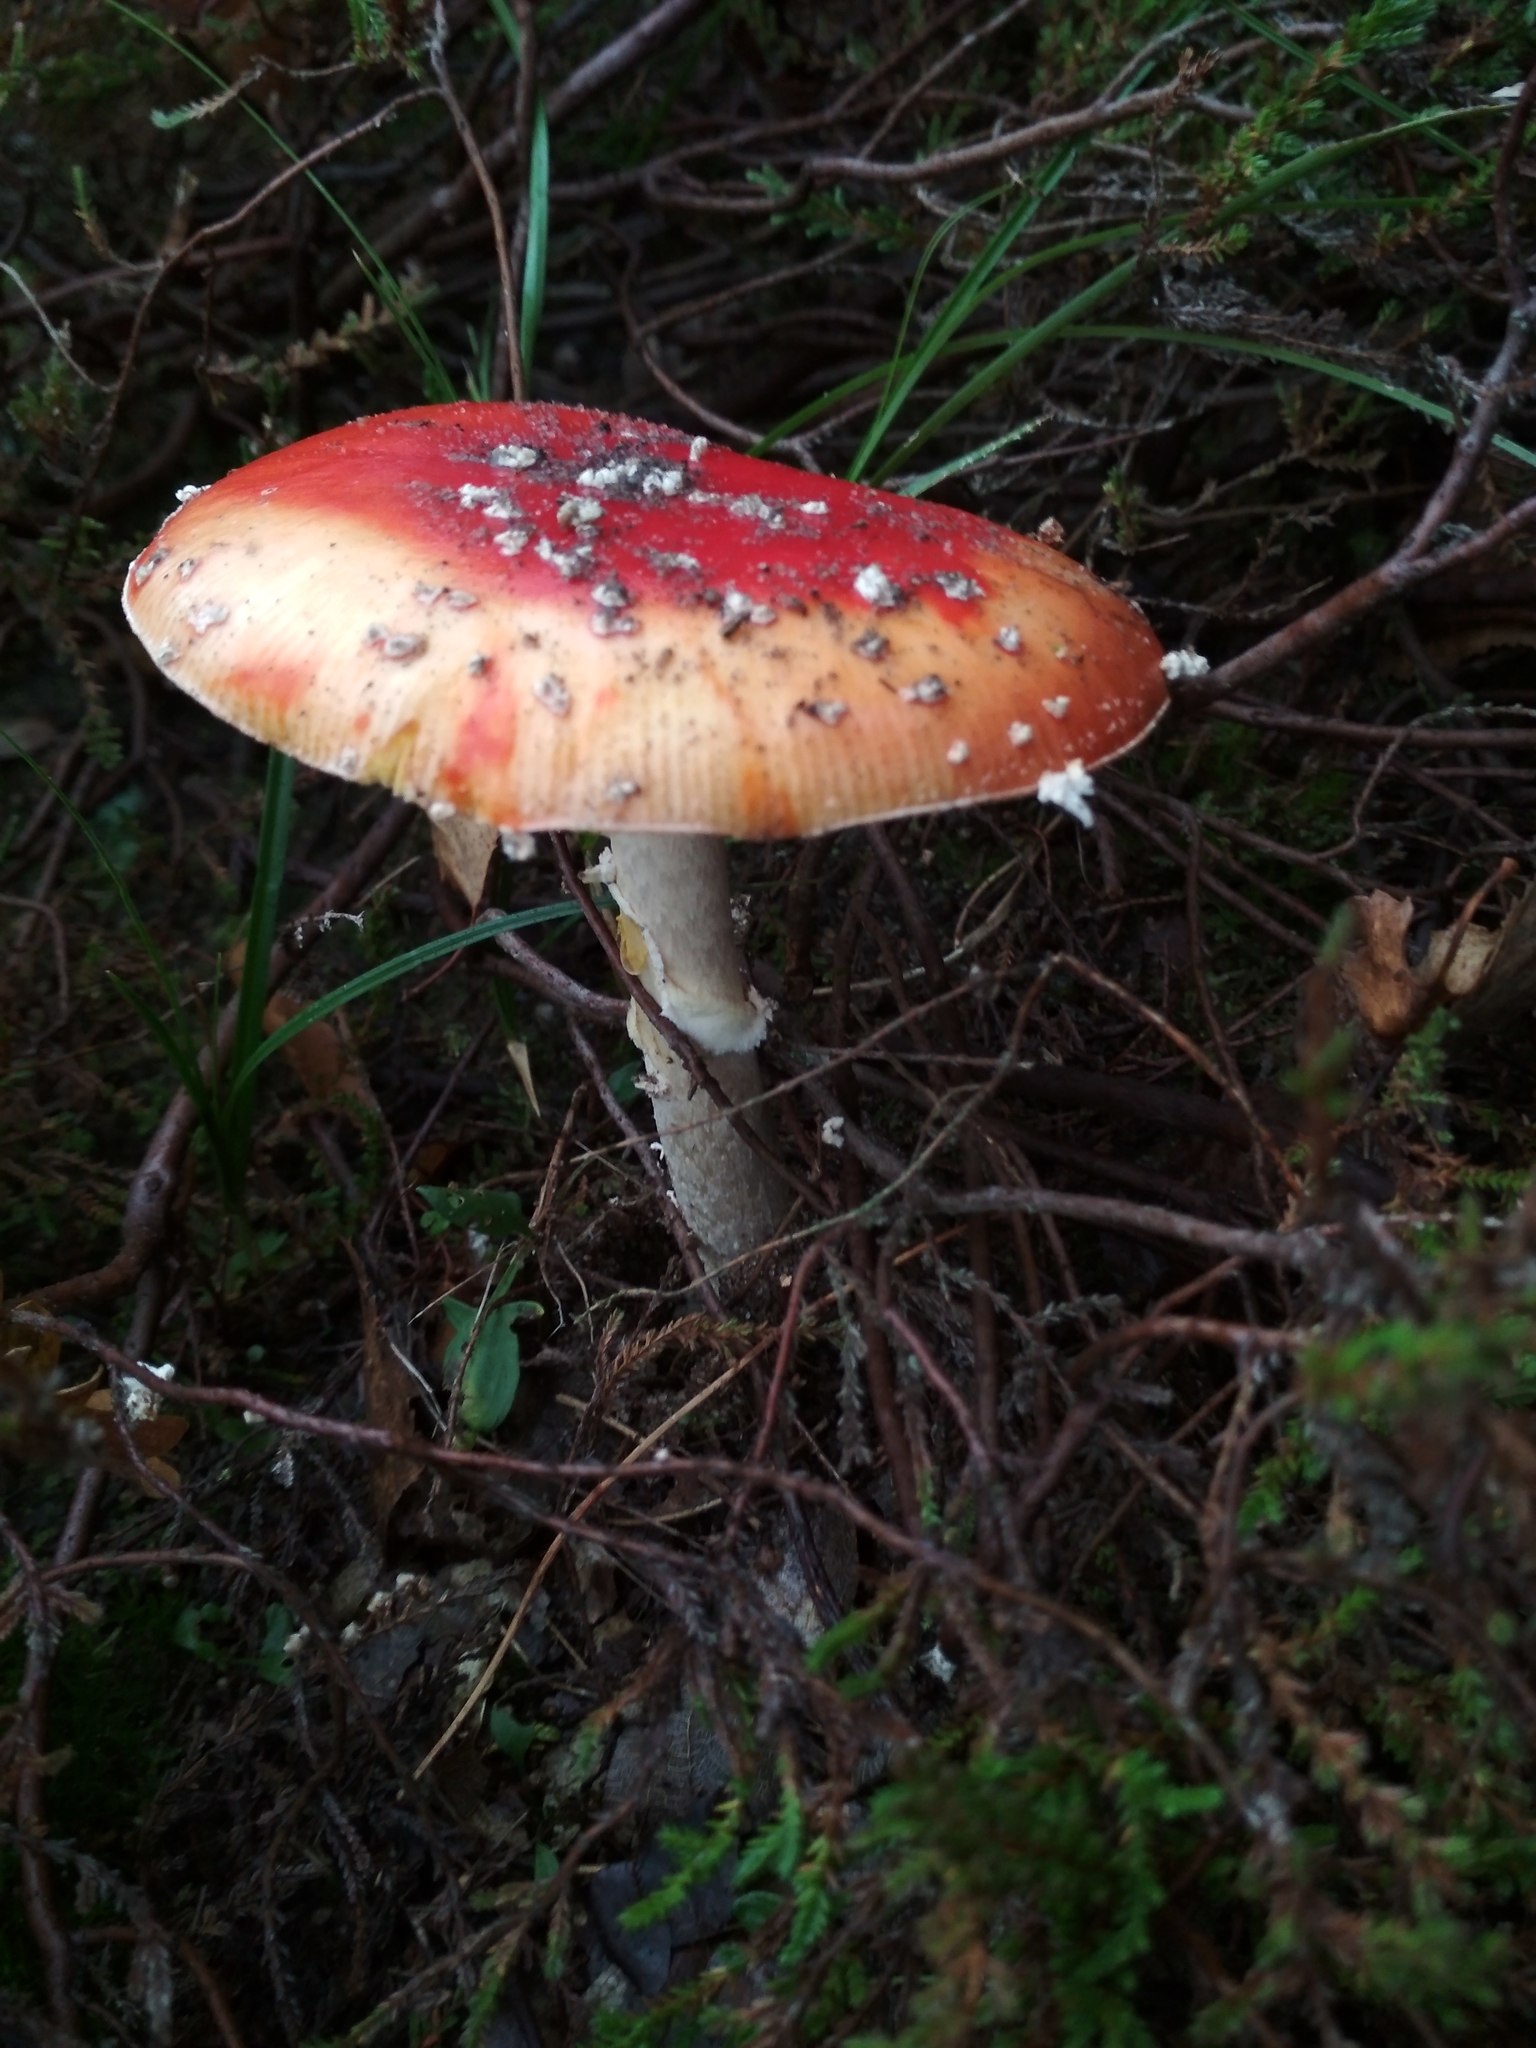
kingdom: Fungi
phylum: Basidiomycota
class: Agaricomycetes
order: Agaricales
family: Amanitaceae
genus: Amanita
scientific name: Amanita muscaria
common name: Fly agaric
